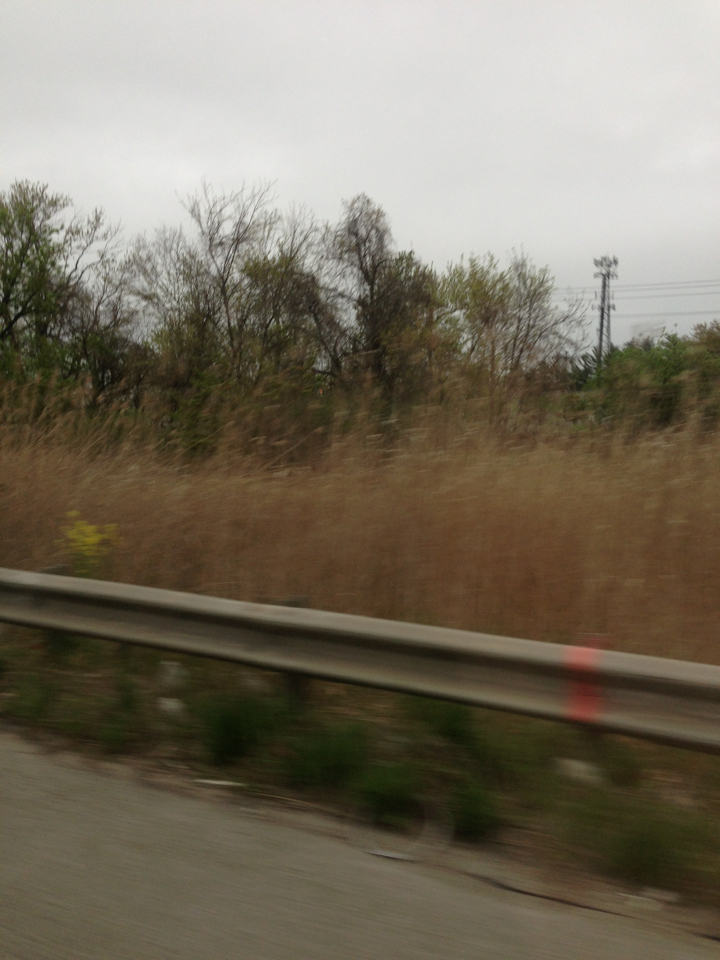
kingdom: Plantae
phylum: Tracheophyta
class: Liliopsida
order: Poales
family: Poaceae
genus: Phragmites
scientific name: Phragmites australis
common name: Common reed
